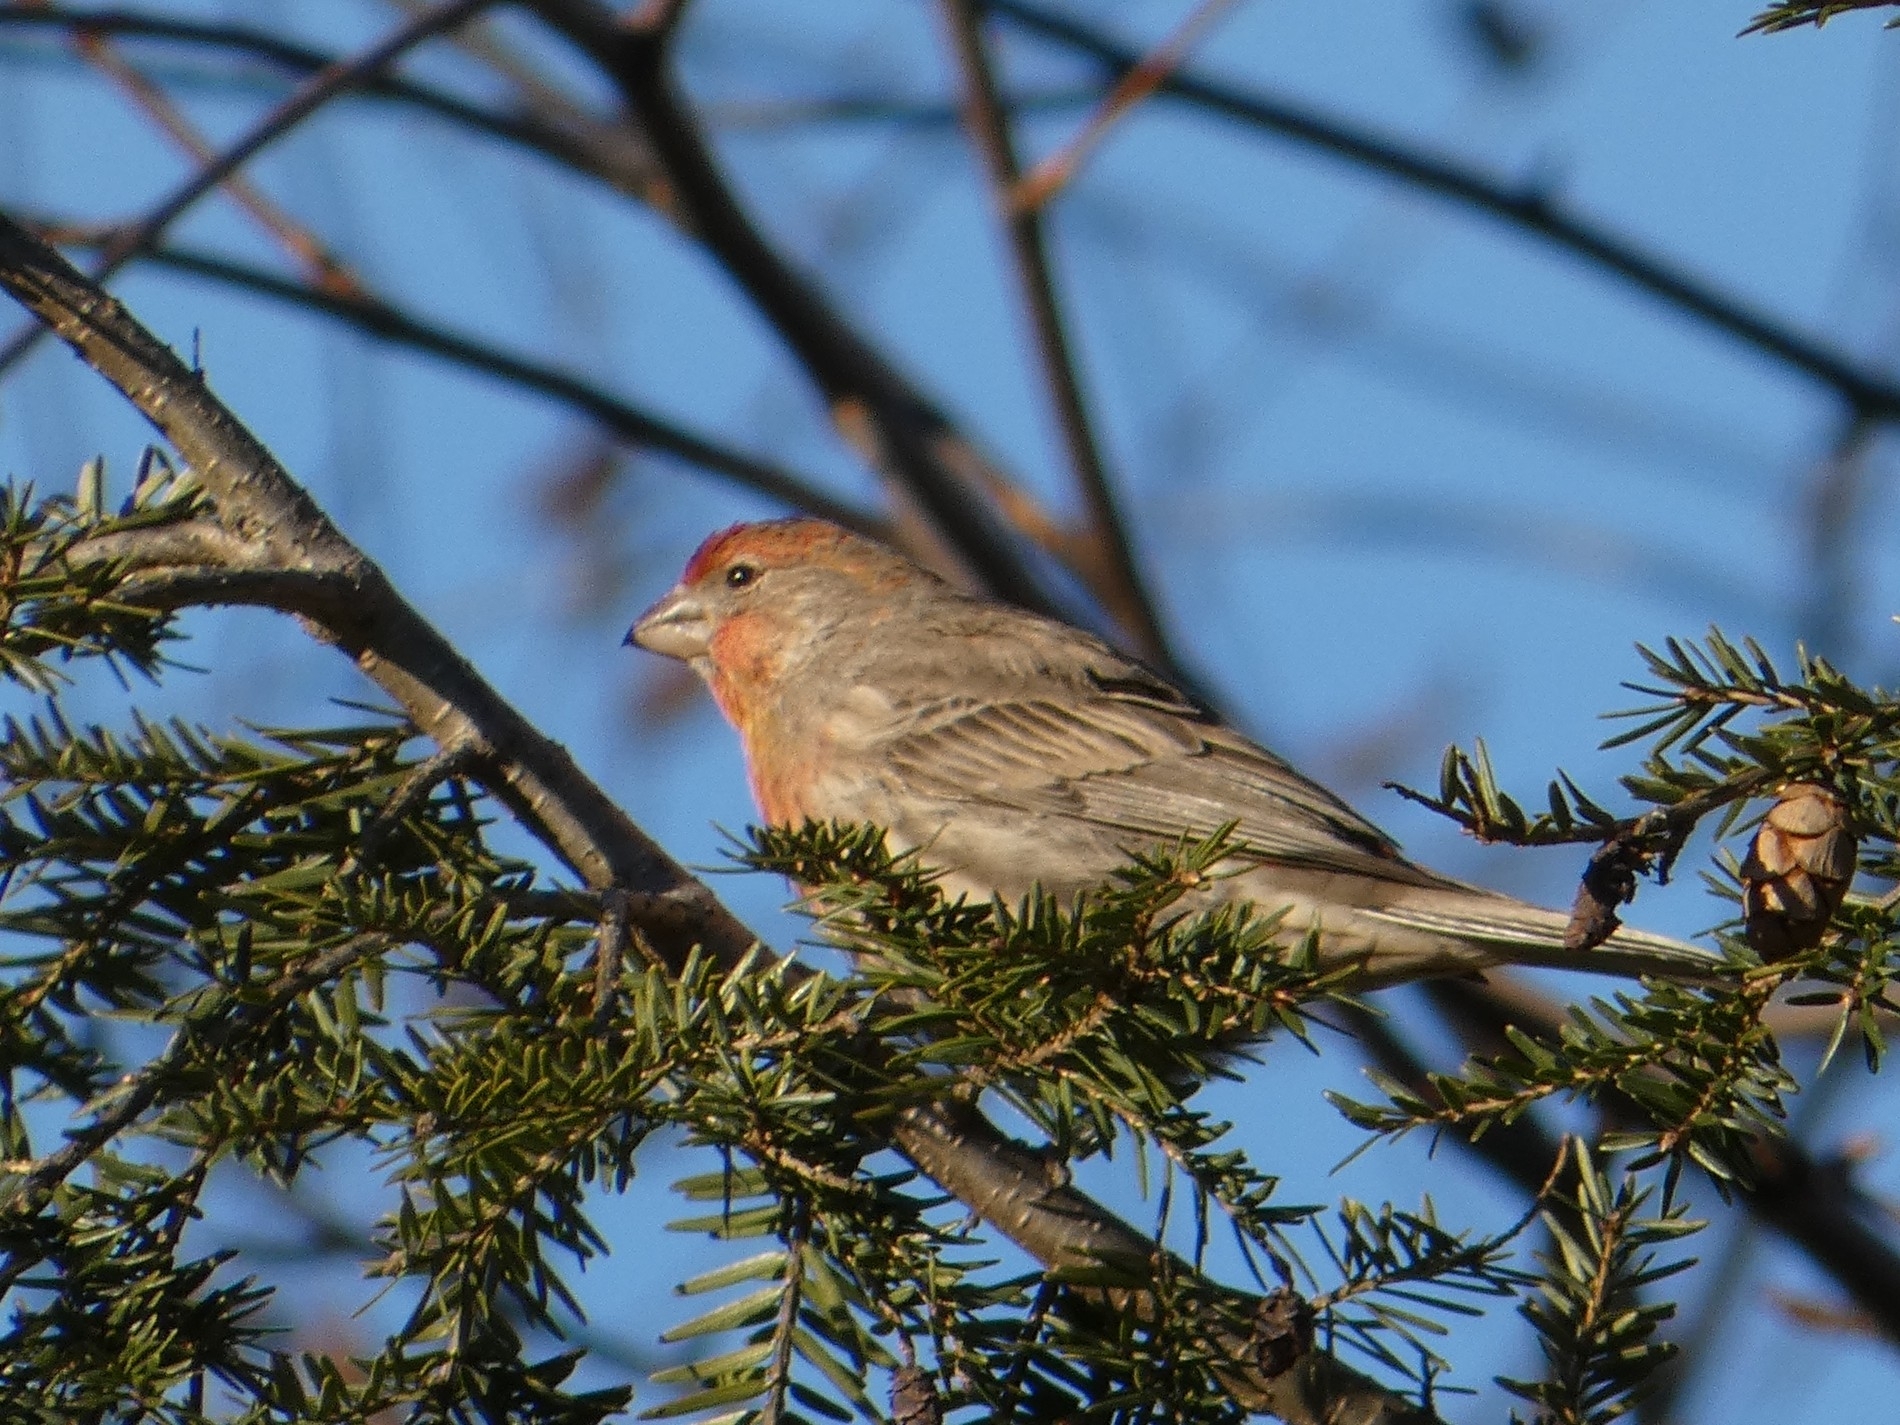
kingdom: Animalia
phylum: Chordata
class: Aves
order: Passeriformes
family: Fringillidae
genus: Haemorhous
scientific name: Haemorhous mexicanus
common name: House finch
